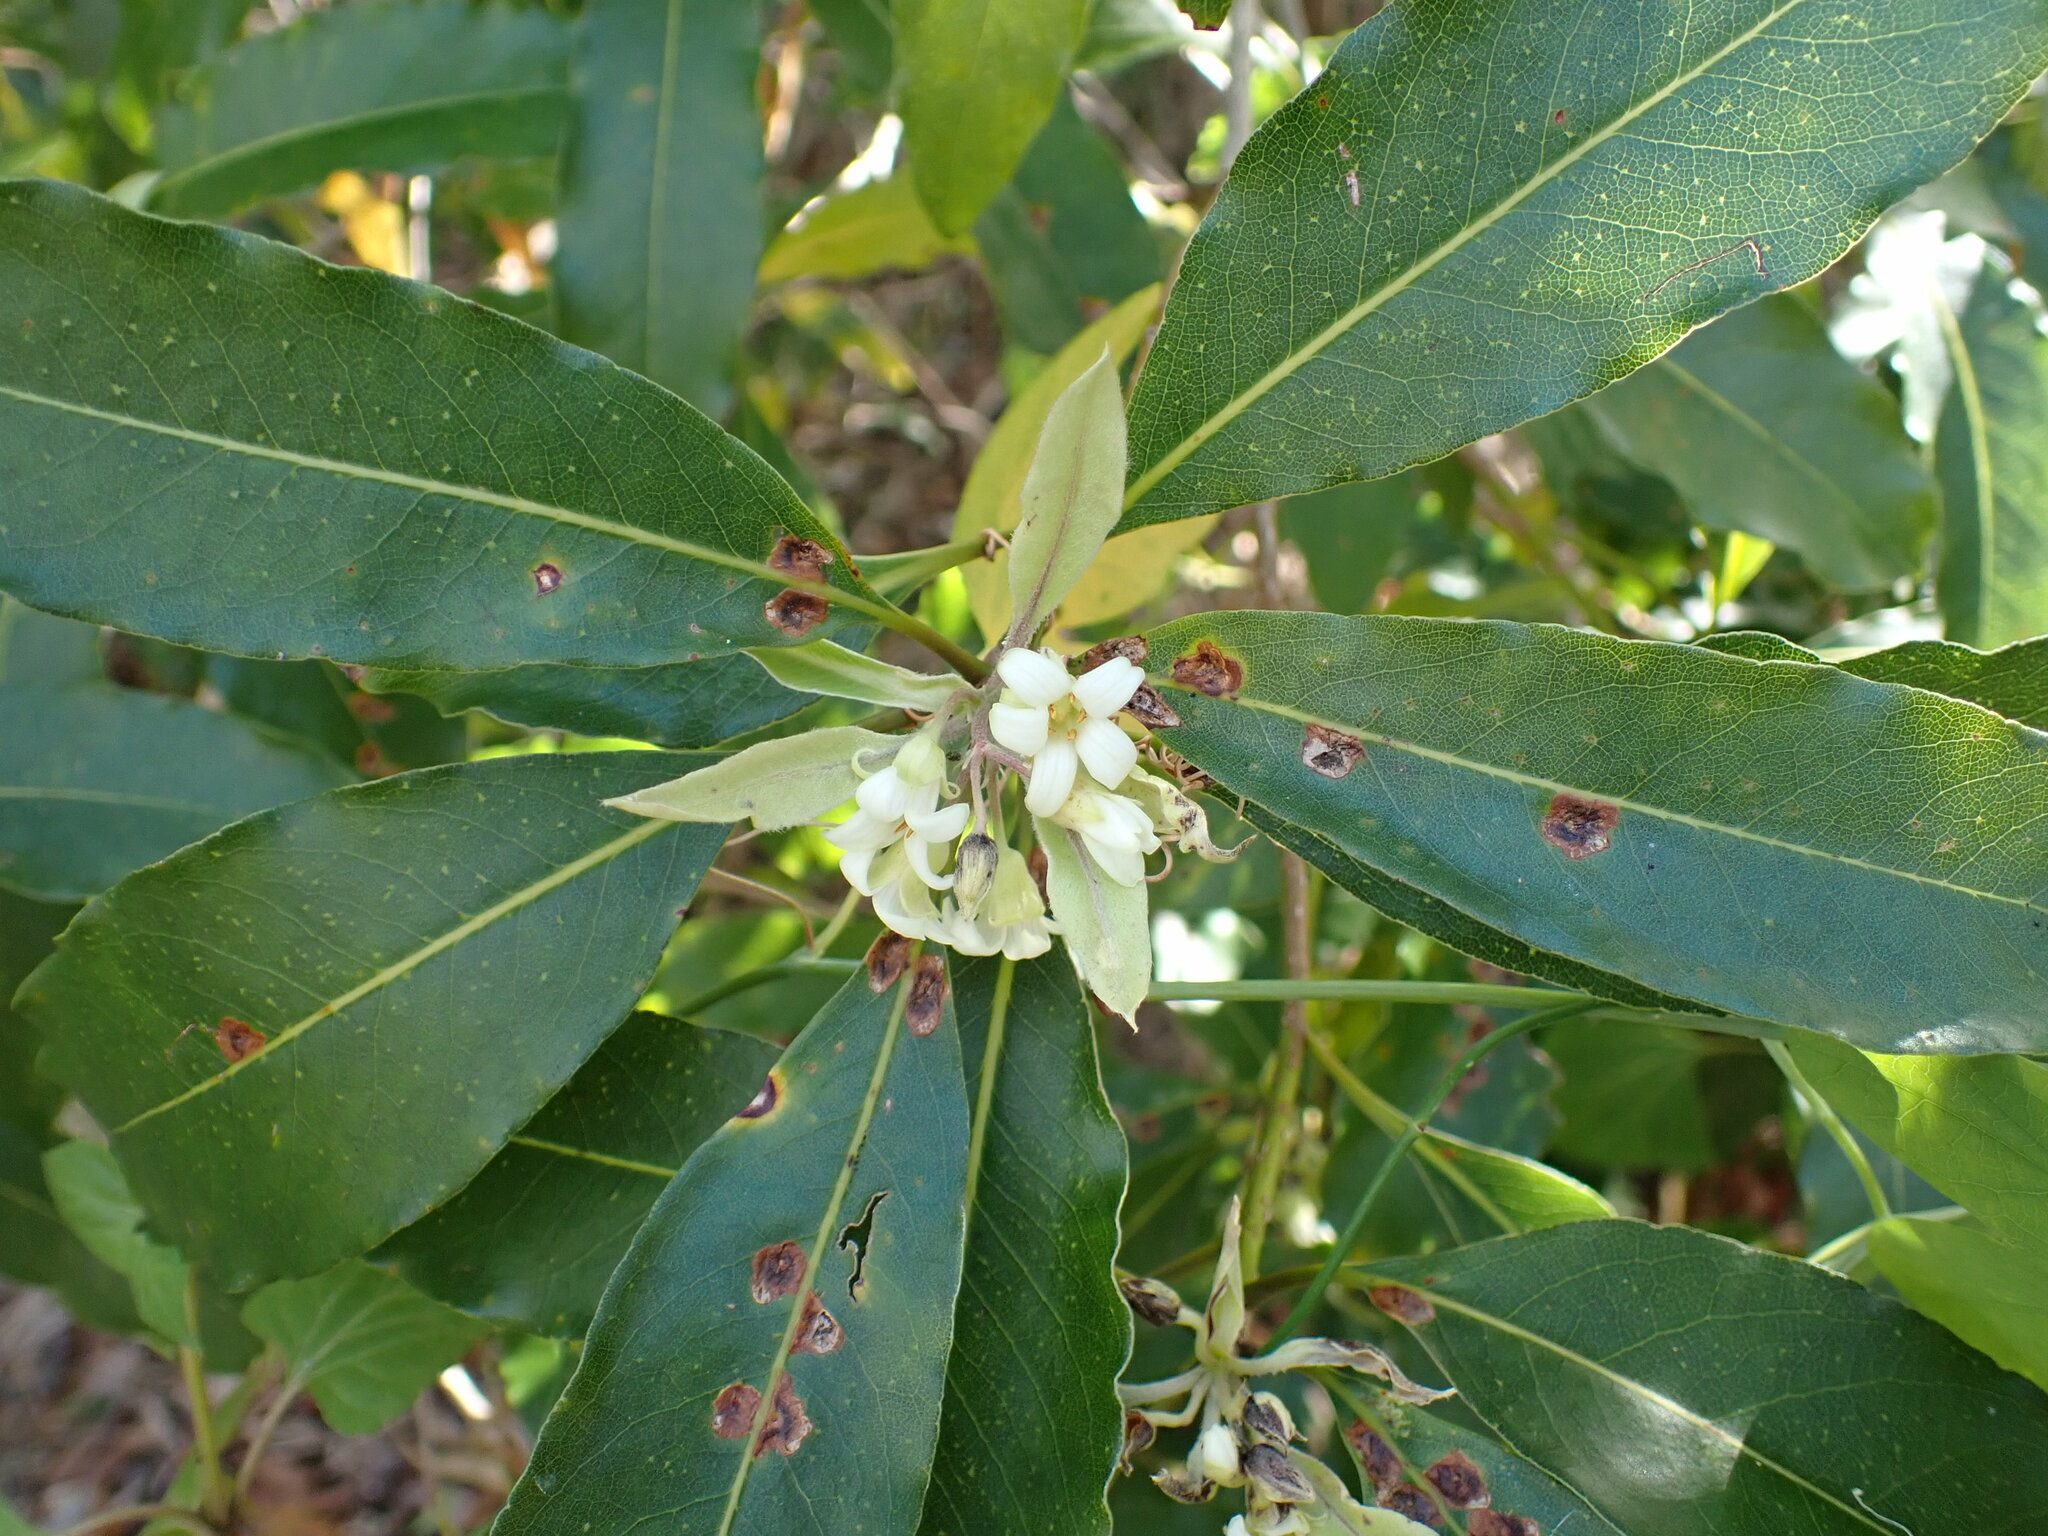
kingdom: Plantae
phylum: Tracheophyta
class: Magnoliopsida
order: Apiales
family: Pittosporaceae
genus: Pittosporum
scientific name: Pittosporum undulatum
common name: Australian cheesewood
